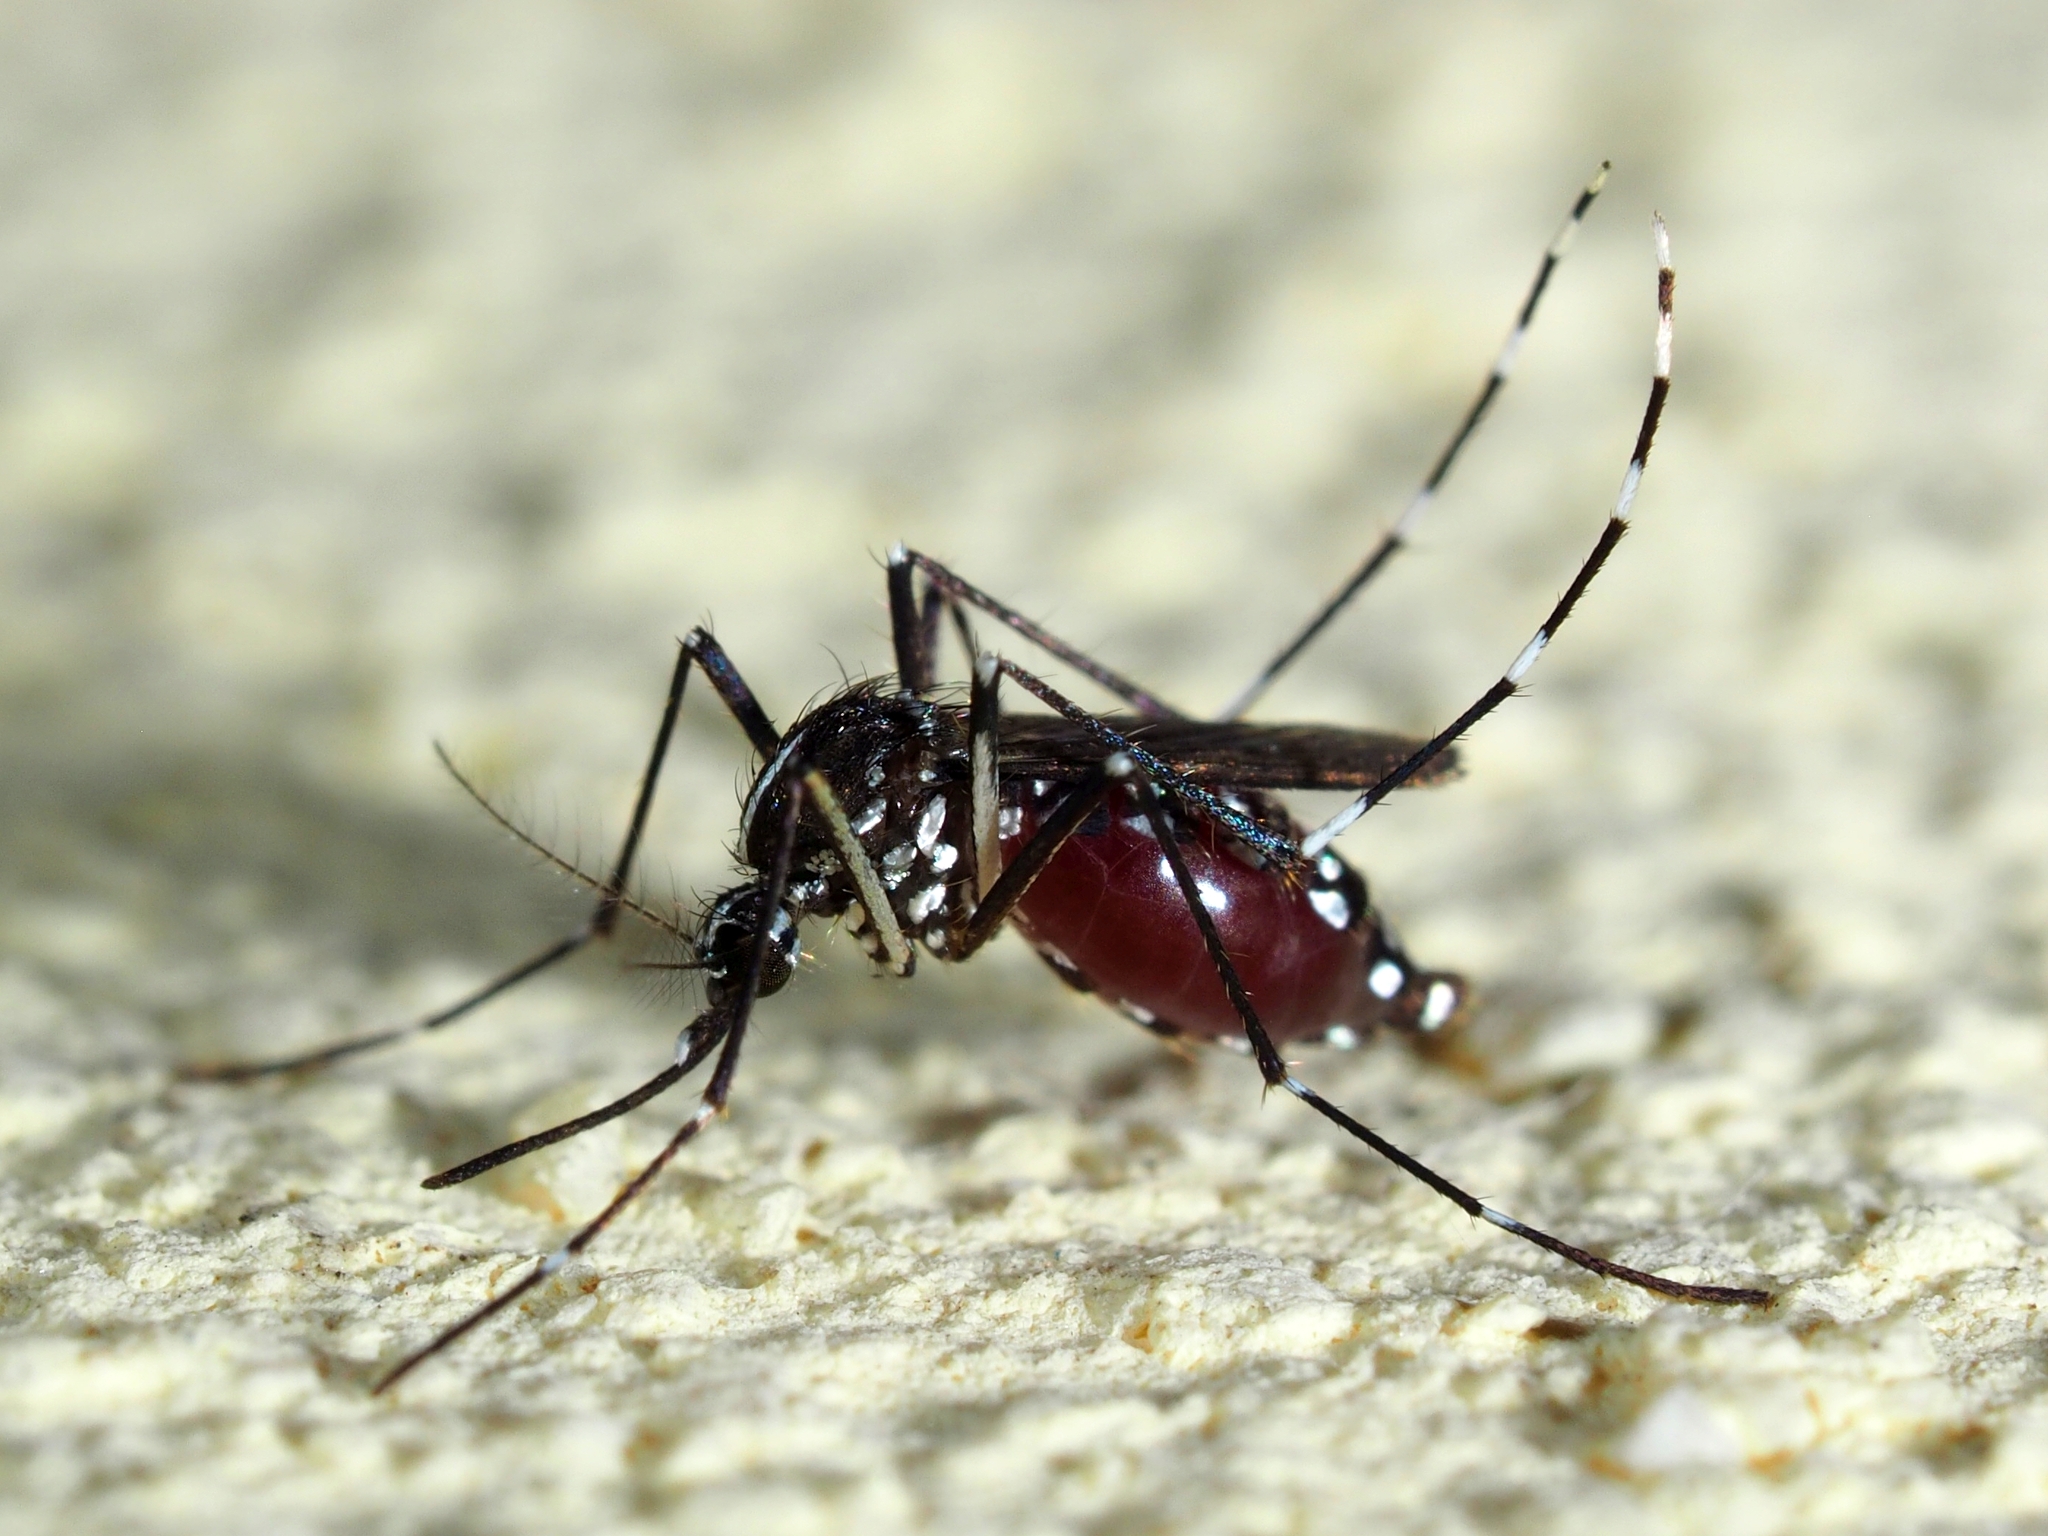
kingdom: Animalia
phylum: Arthropoda
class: Insecta
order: Diptera
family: Culicidae
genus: Aedes
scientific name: Aedes albopictus
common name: Tiger mosquito
